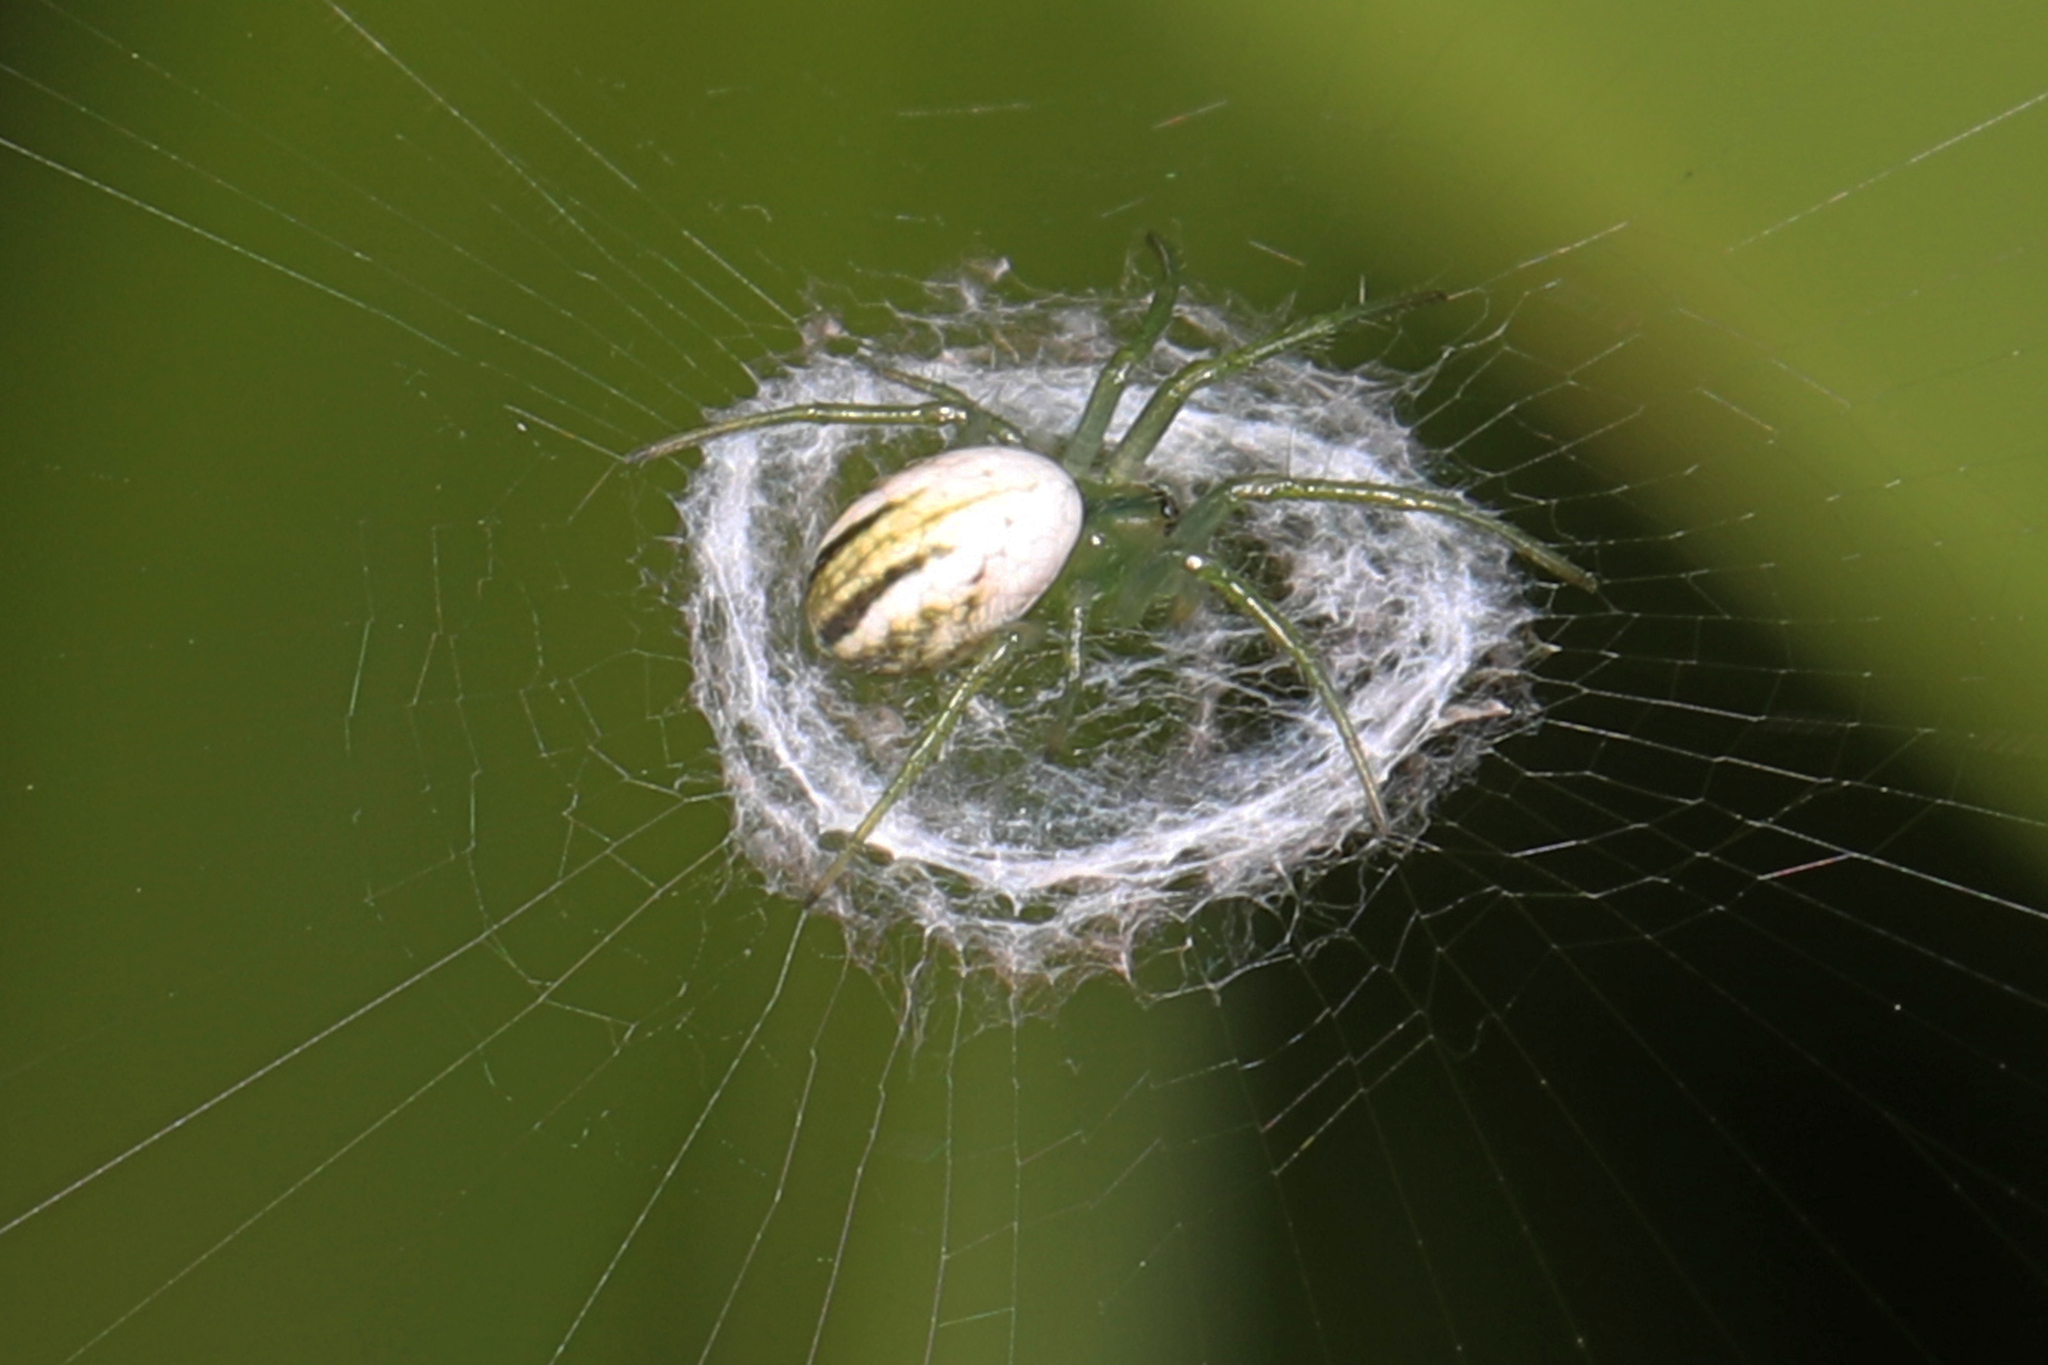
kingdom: Animalia
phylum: Arthropoda
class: Arachnida
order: Araneae
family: Araneidae
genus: Mangora
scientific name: Mangora gibberosa
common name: Lined orbweaver
